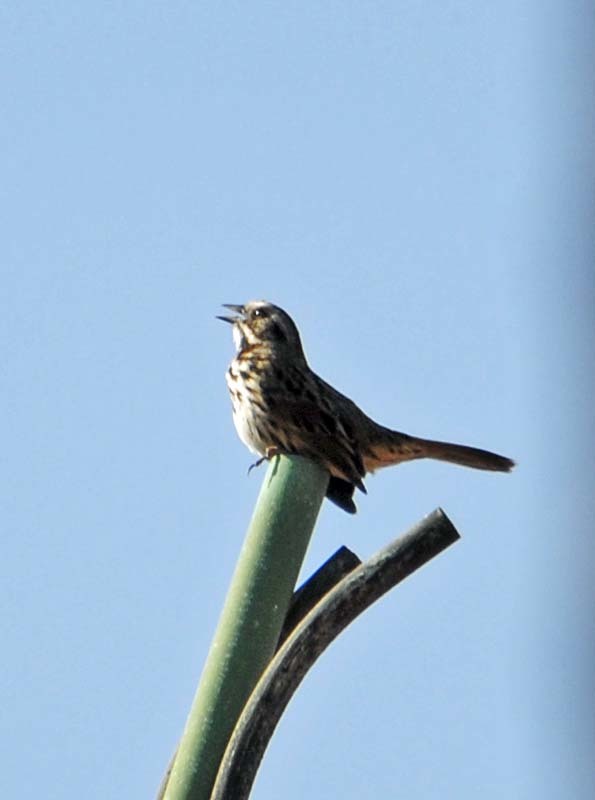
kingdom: Animalia
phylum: Chordata
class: Aves
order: Passeriformes
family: Passerellidae
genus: Melospiza
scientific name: Melospiza melodia
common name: Song sparrow
